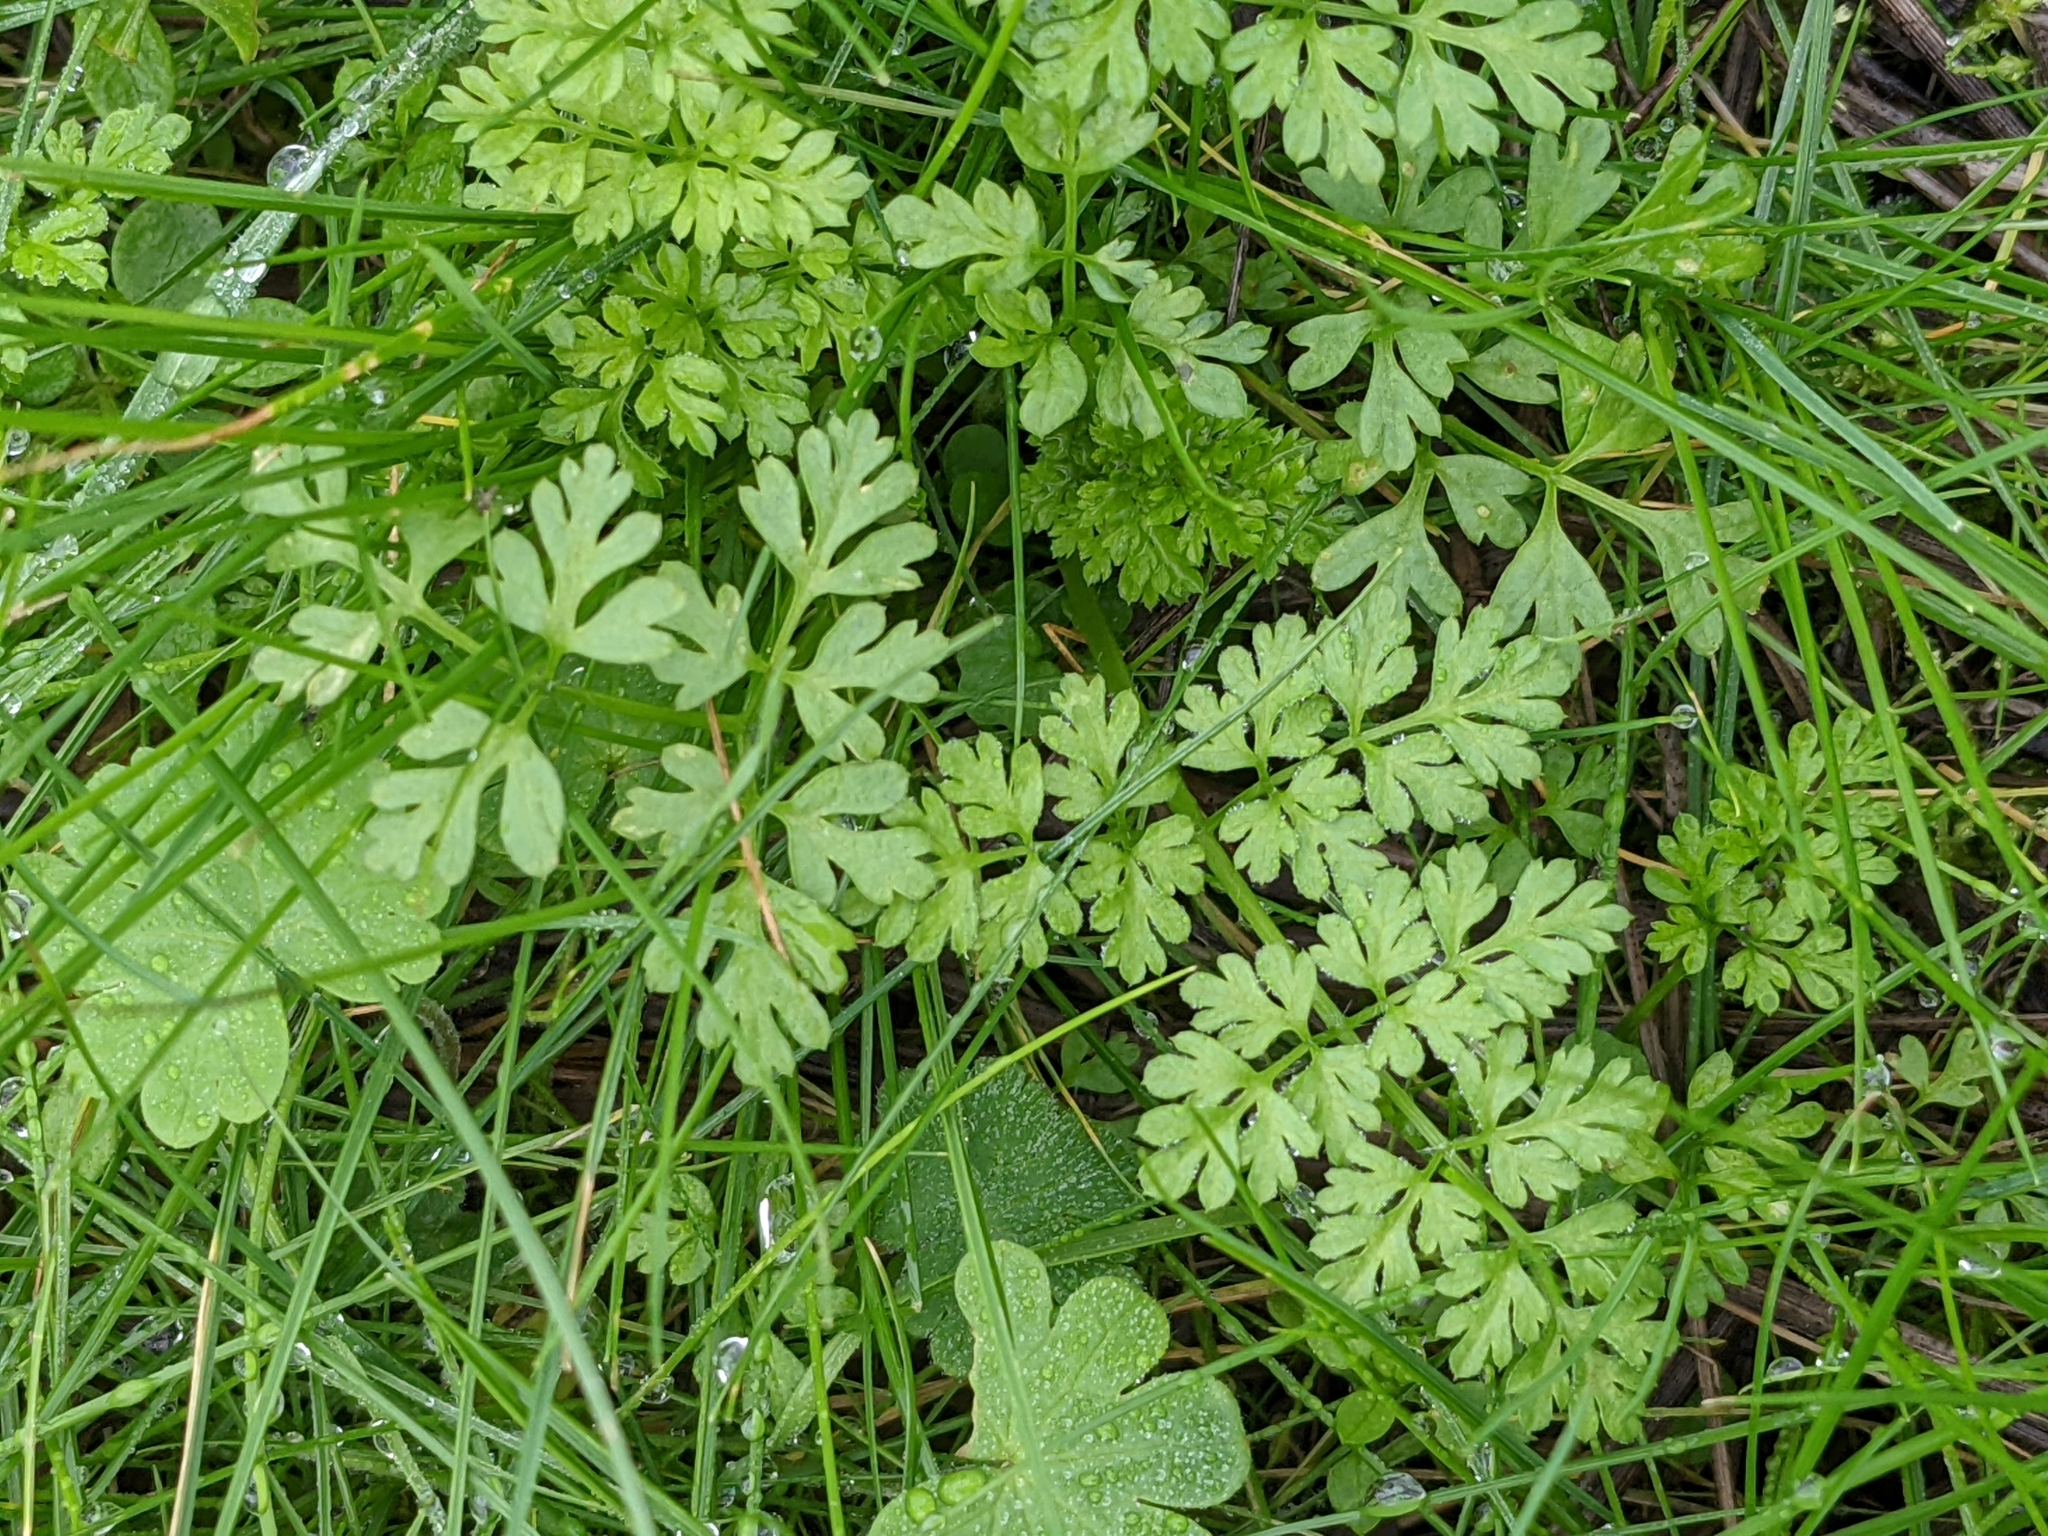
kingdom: Plantae
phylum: Tracheophyta
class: Magnoliopsida
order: Apiales
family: Apiaceae
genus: Anthriscus
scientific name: Anthriscus caucalis
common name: Bur chervil
